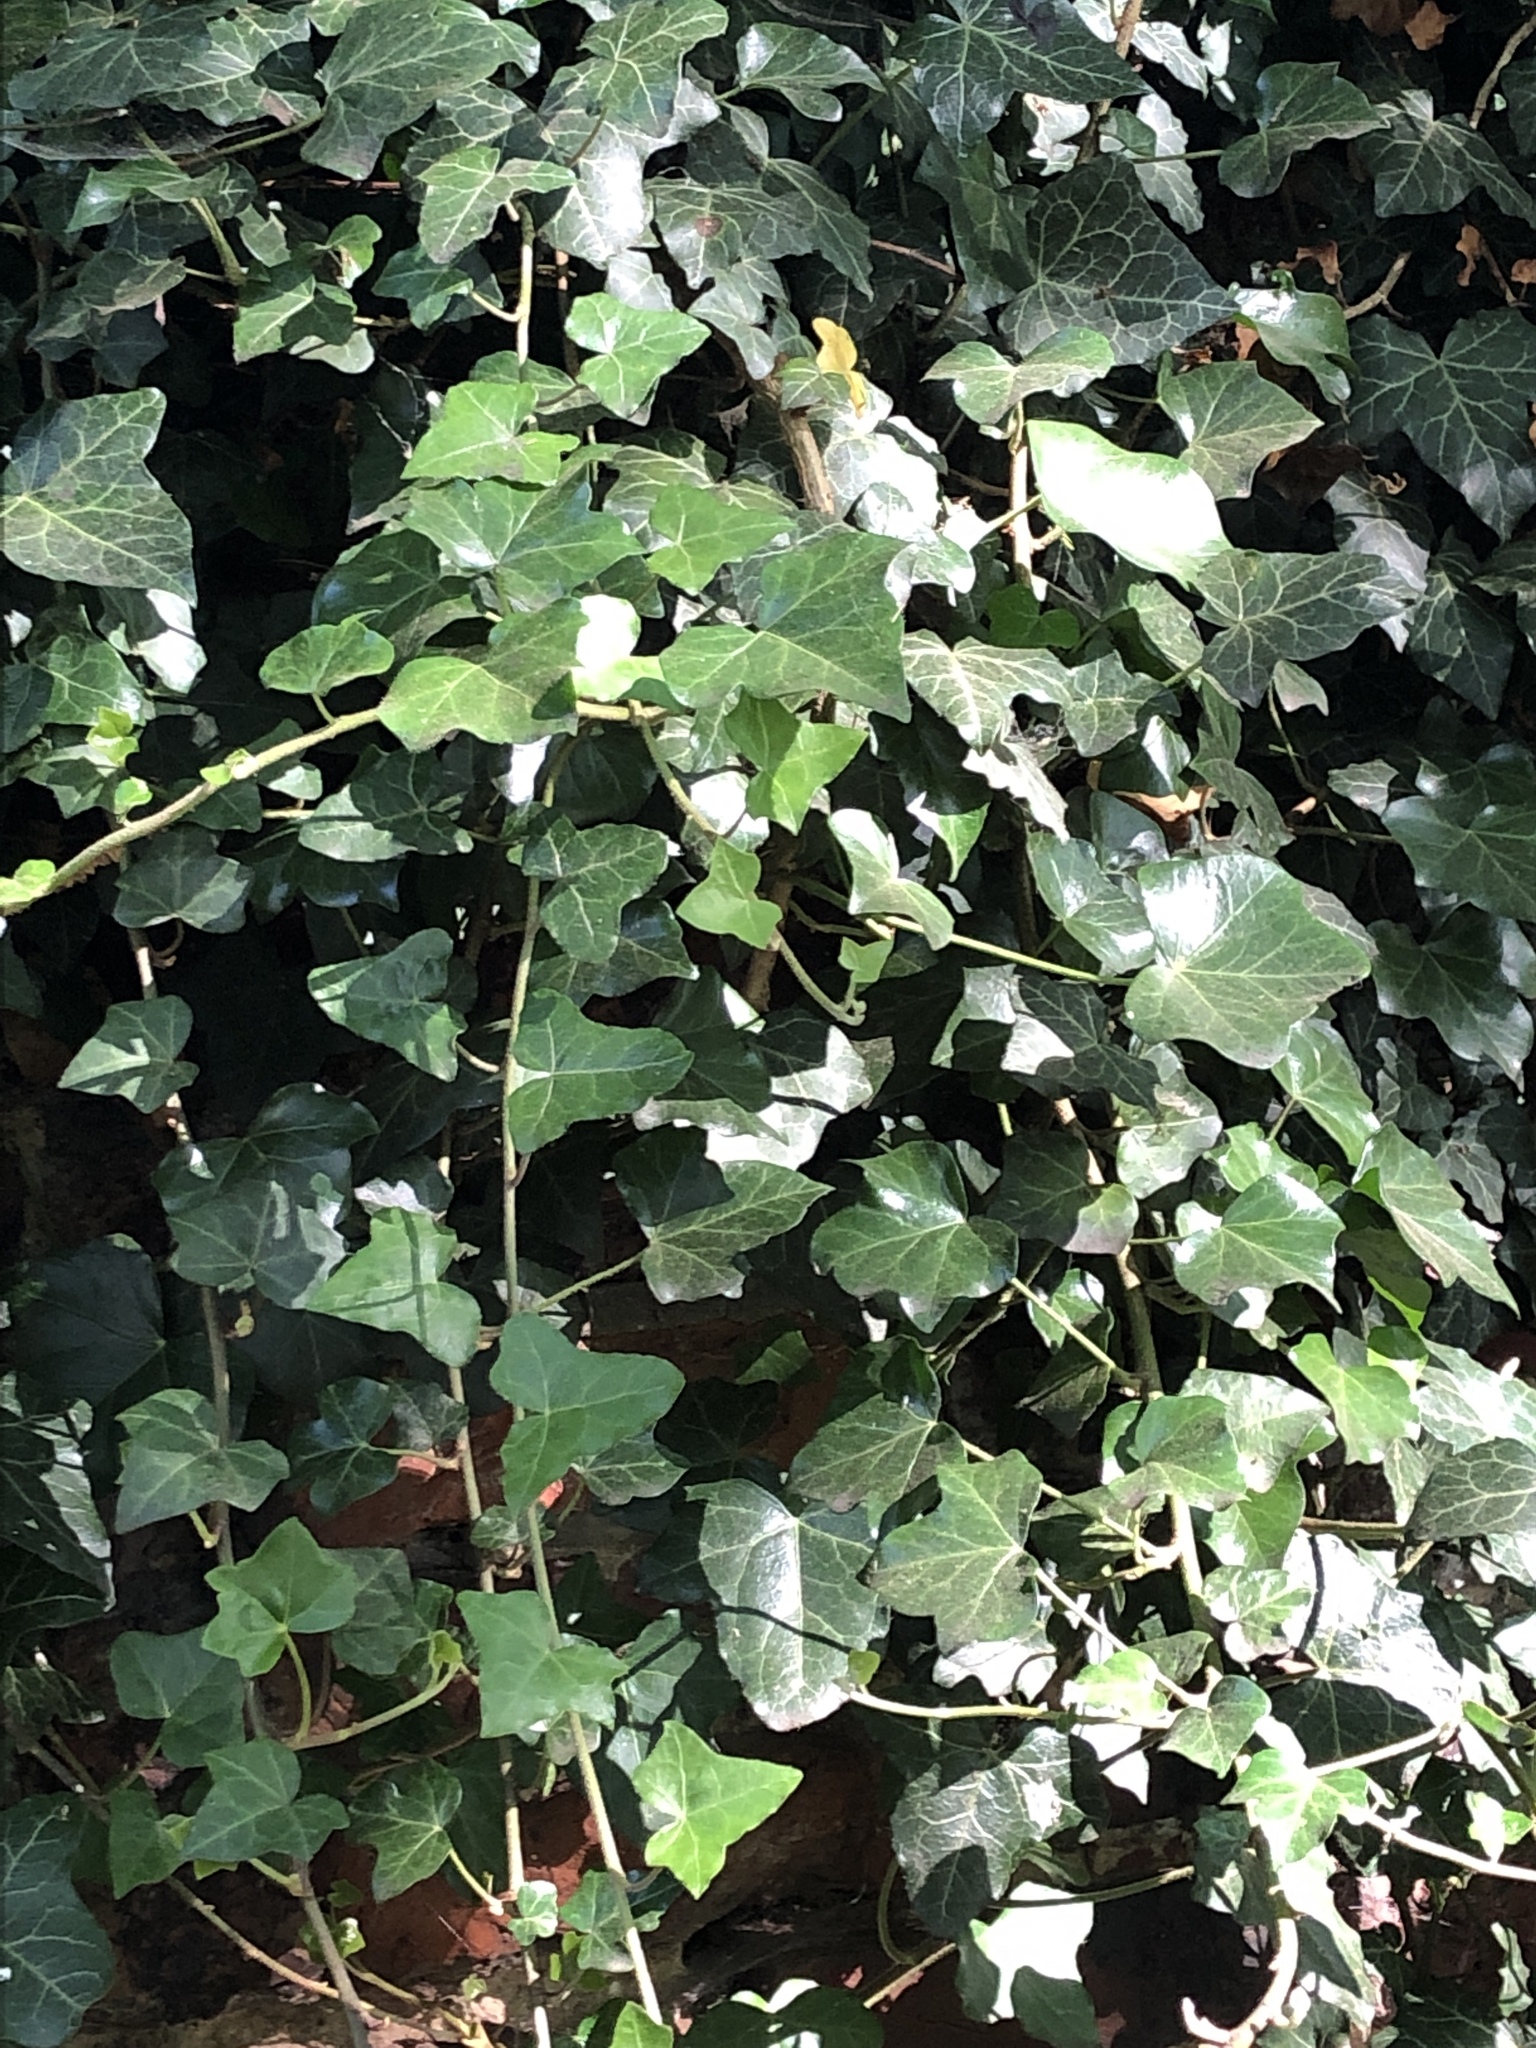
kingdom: Plantae
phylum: Tracheophyta
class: Magnoliopsida
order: Apiales
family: Araliaceae
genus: Hedera
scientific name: Hedera helix
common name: Ivy
